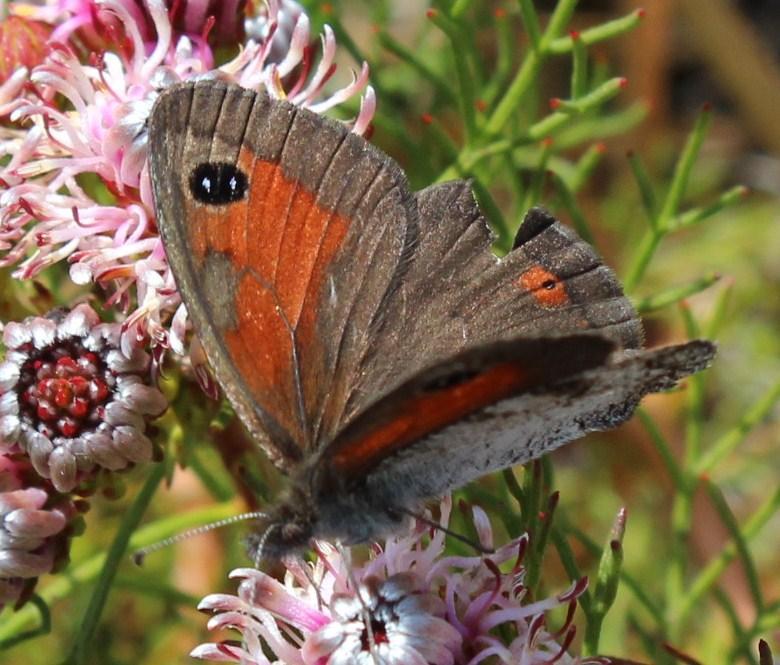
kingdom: Animalia
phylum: Arthropoda
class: Insecta
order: Lepidoptera
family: Nymphalidae
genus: Pseudonympha
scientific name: Pseudonympha magus
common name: Silver-bottom brown
